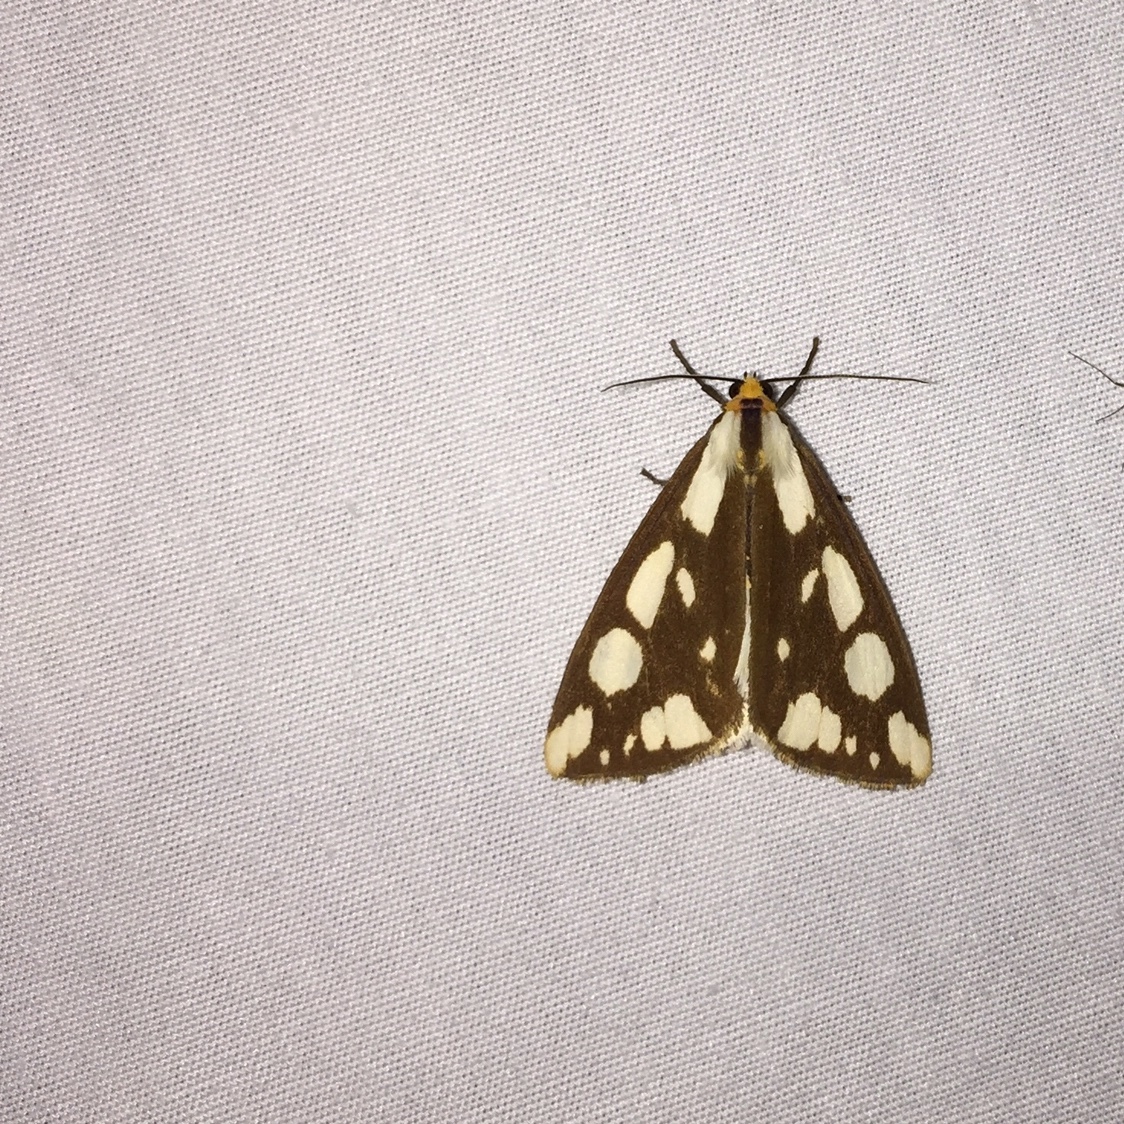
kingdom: Animalia
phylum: Arthropoda
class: Insecta
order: Lepidoptera
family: Erebidae
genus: Haploa
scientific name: Haploa confusa
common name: Confused haploa moth
